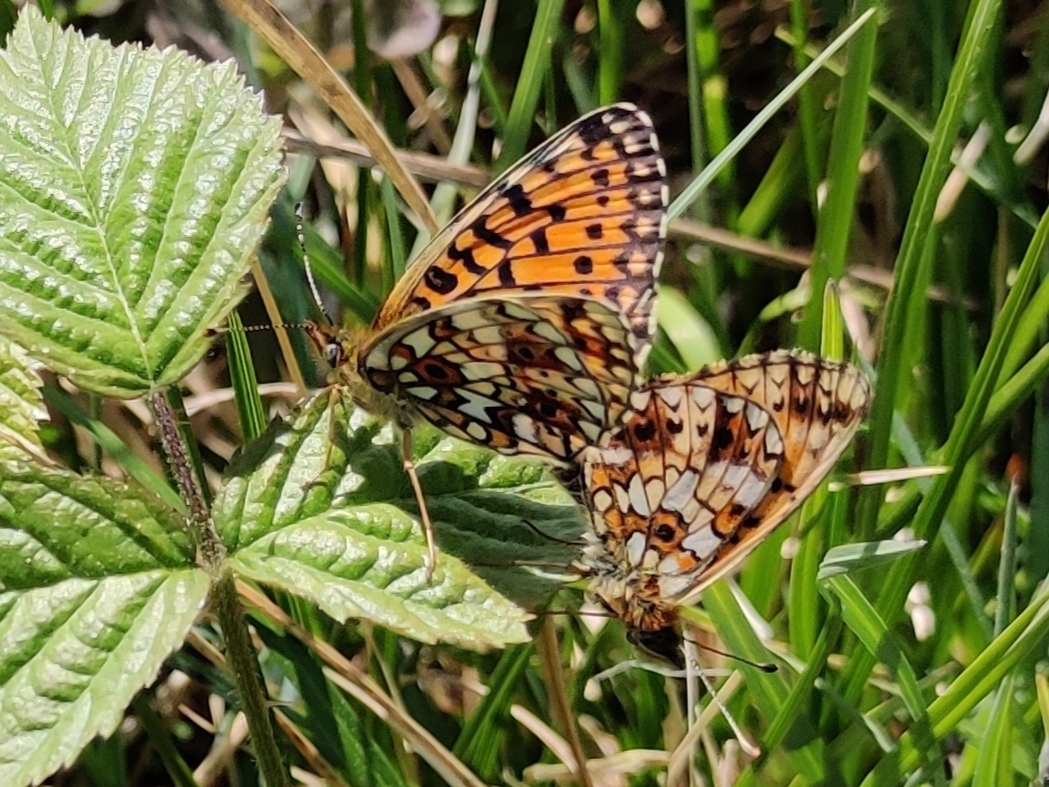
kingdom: Animalia
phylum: Arthropoda
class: Insecta
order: Lepidoptera
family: Nymphalidae
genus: Boloria
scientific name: Boloria selene
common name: Small pearl-bordered fritillary
